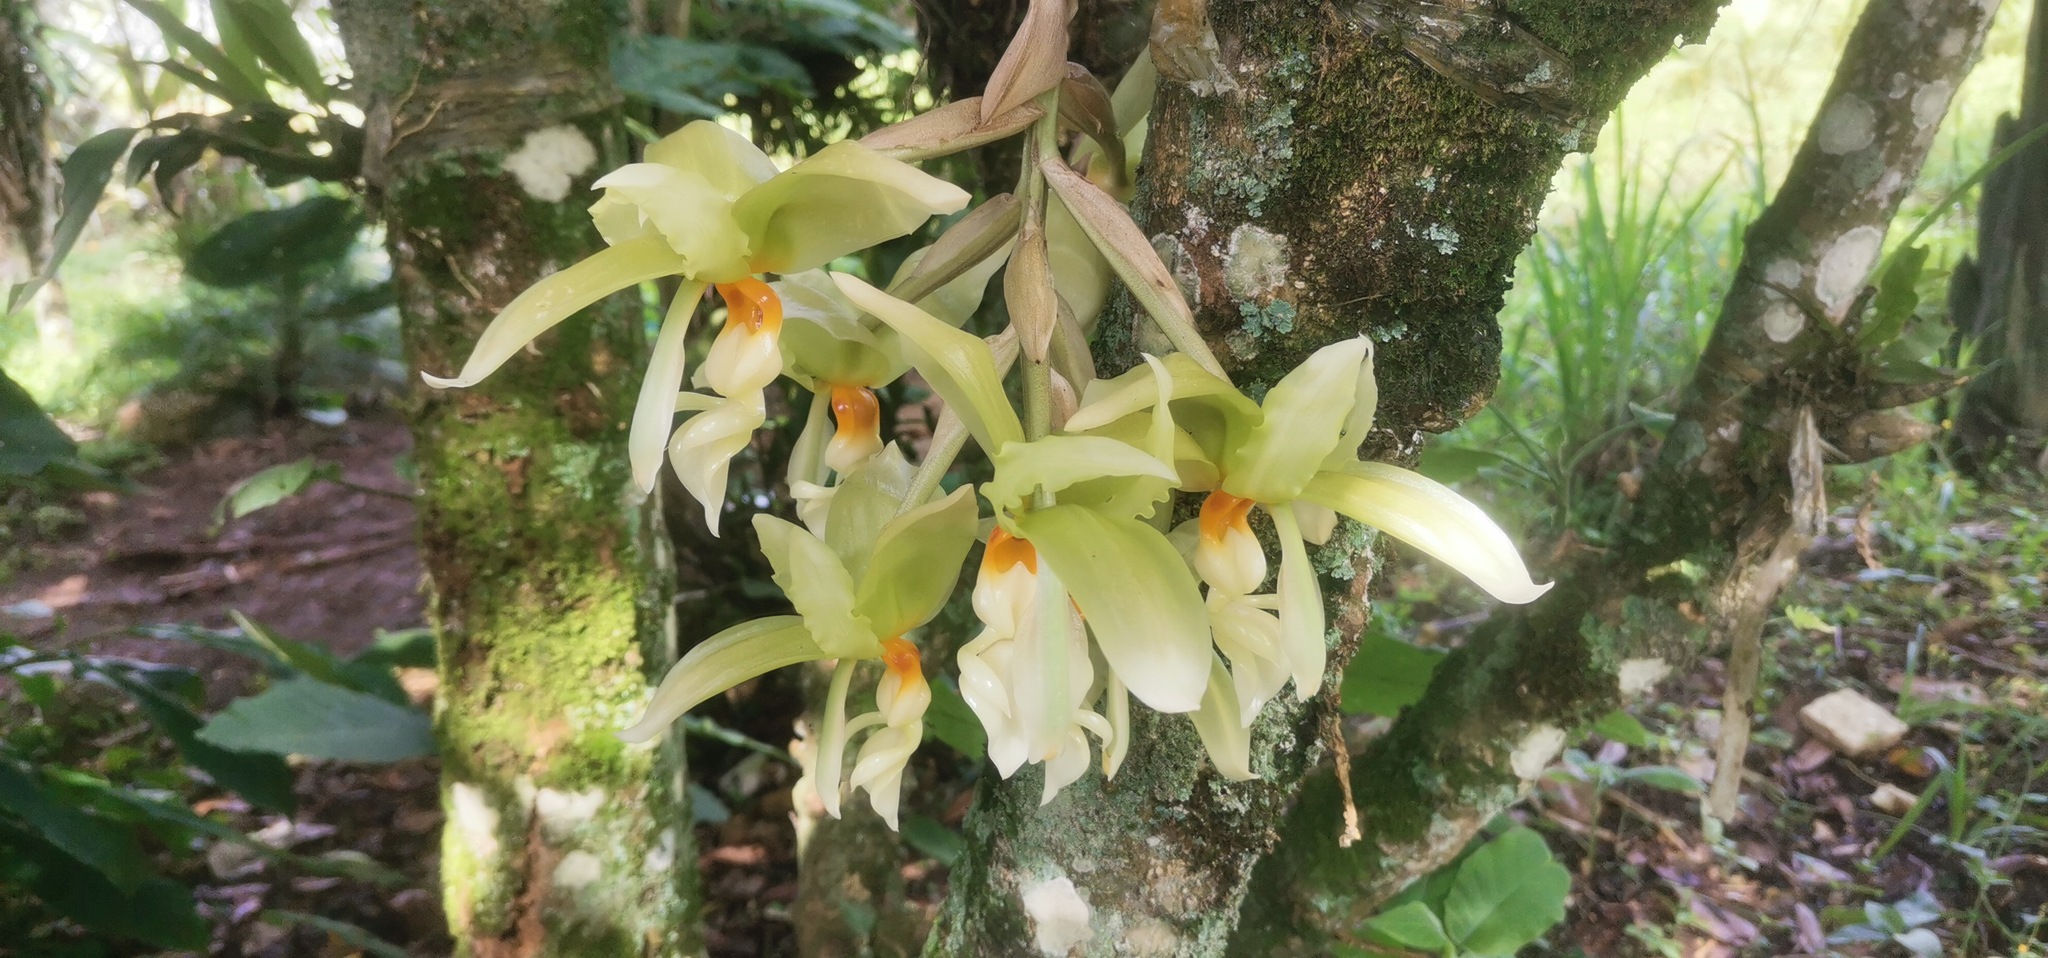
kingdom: Plantae
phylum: Tracheophyta
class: Liliopsida
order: Asparagales
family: Orchidaceae
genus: Stanhopea
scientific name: Stanhopea ruckeri
